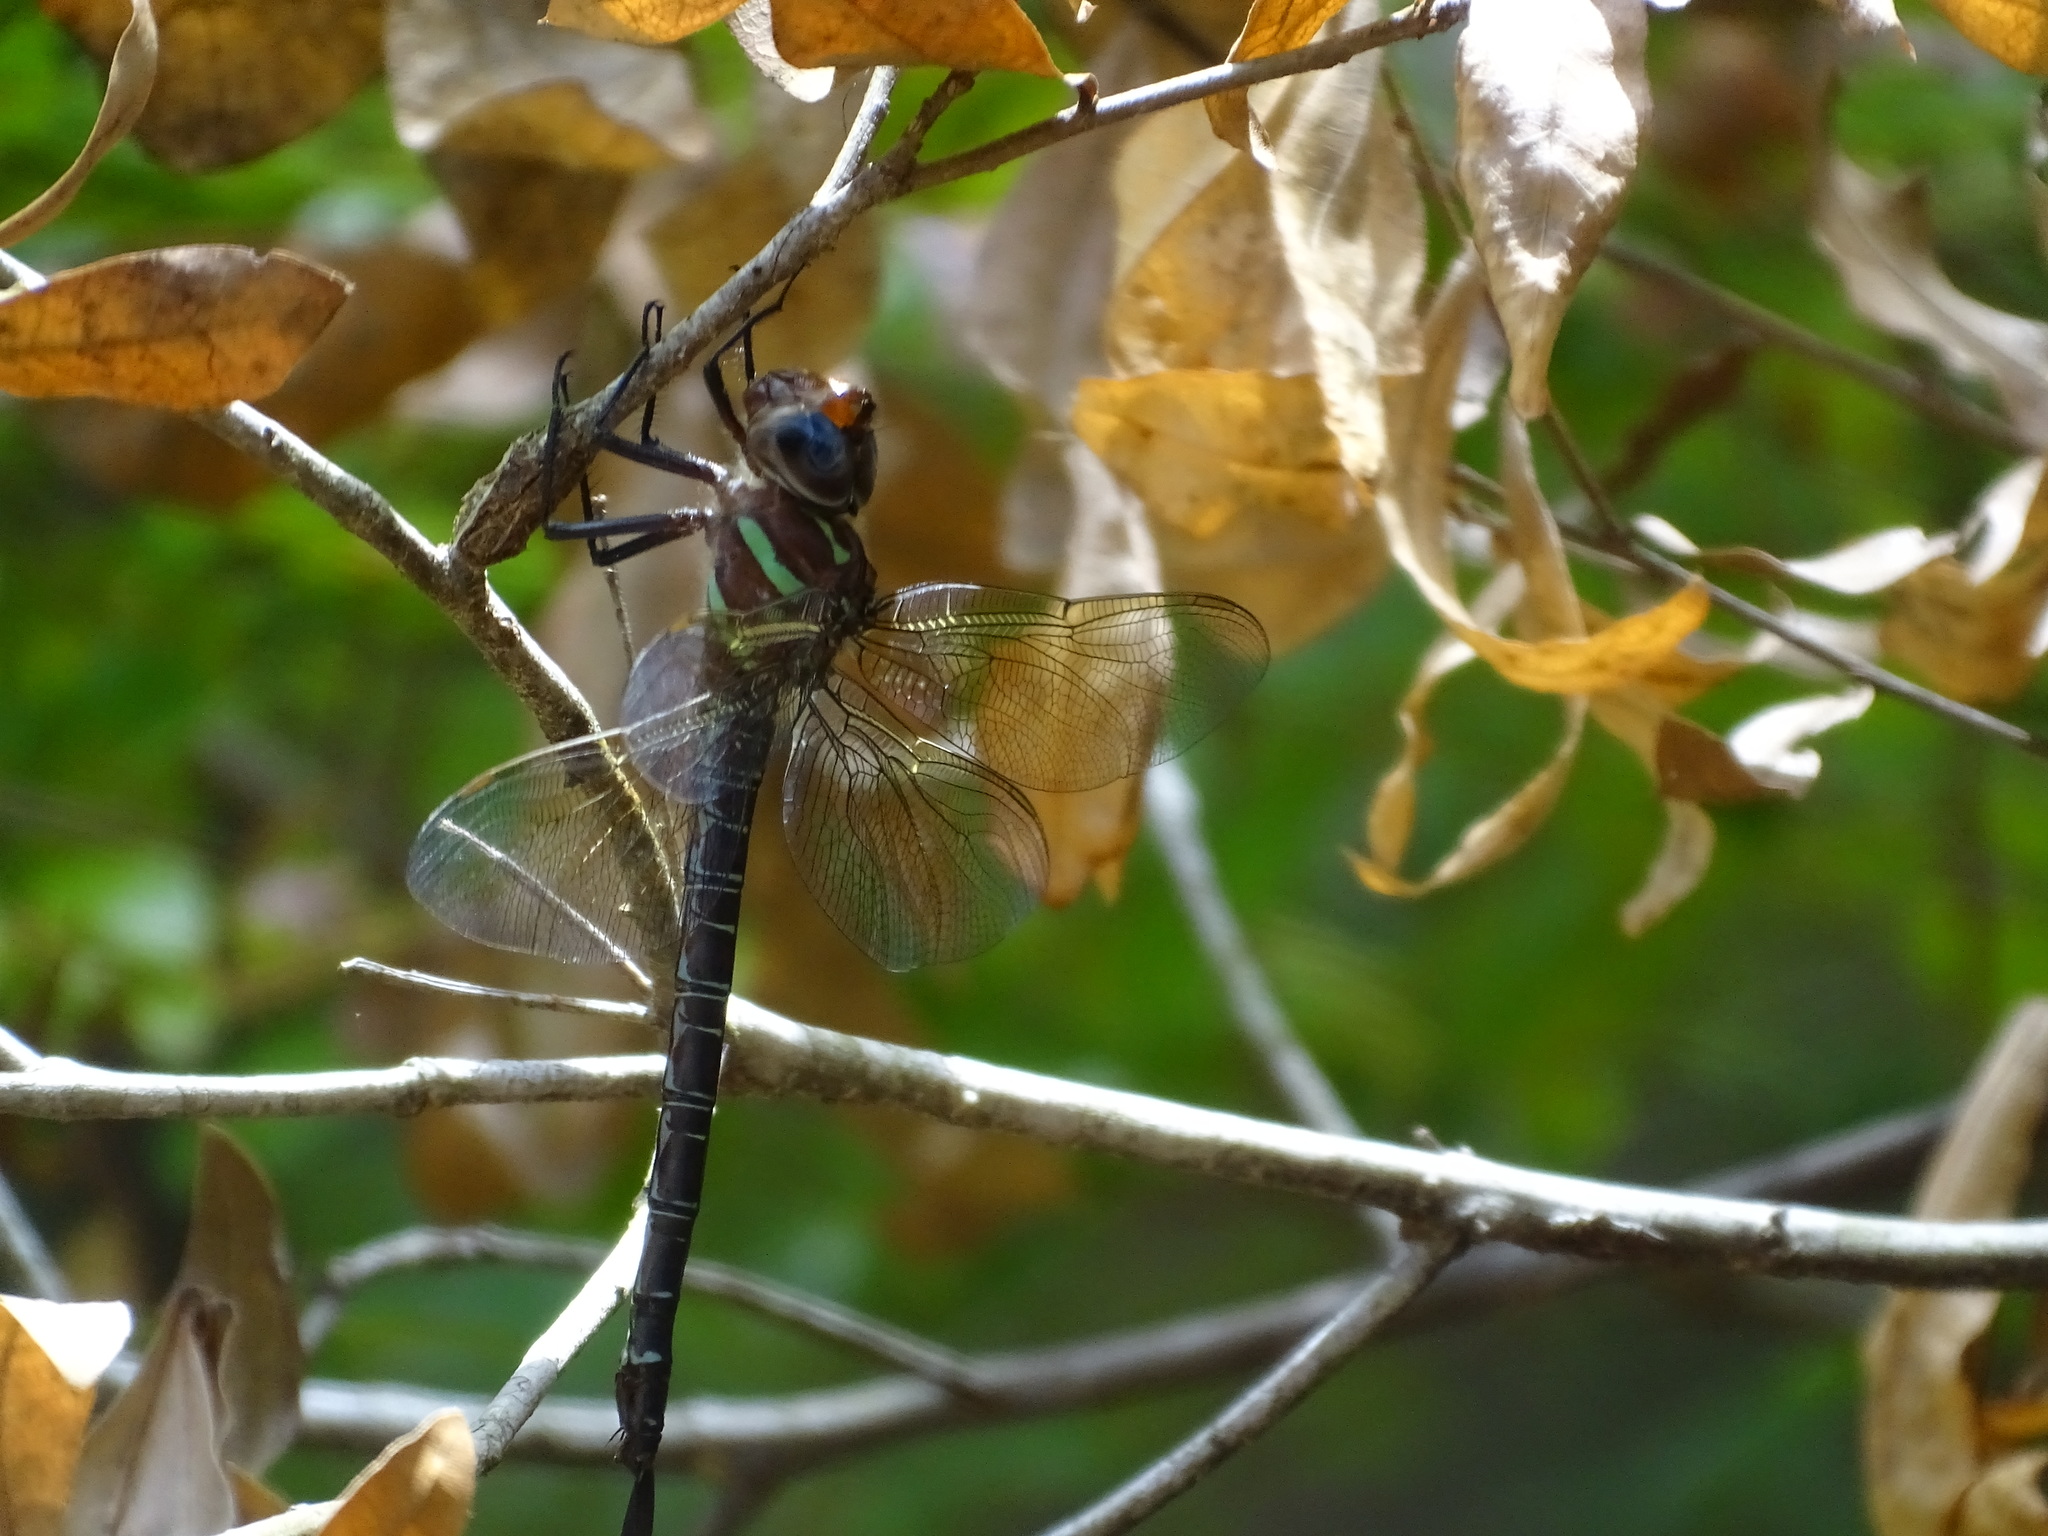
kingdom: Animalia
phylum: Arthropoda
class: Insecta
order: Odonata
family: Aeshnidae
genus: Epiaeschna
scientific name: Epiaeschna heros
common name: Swamp darner
